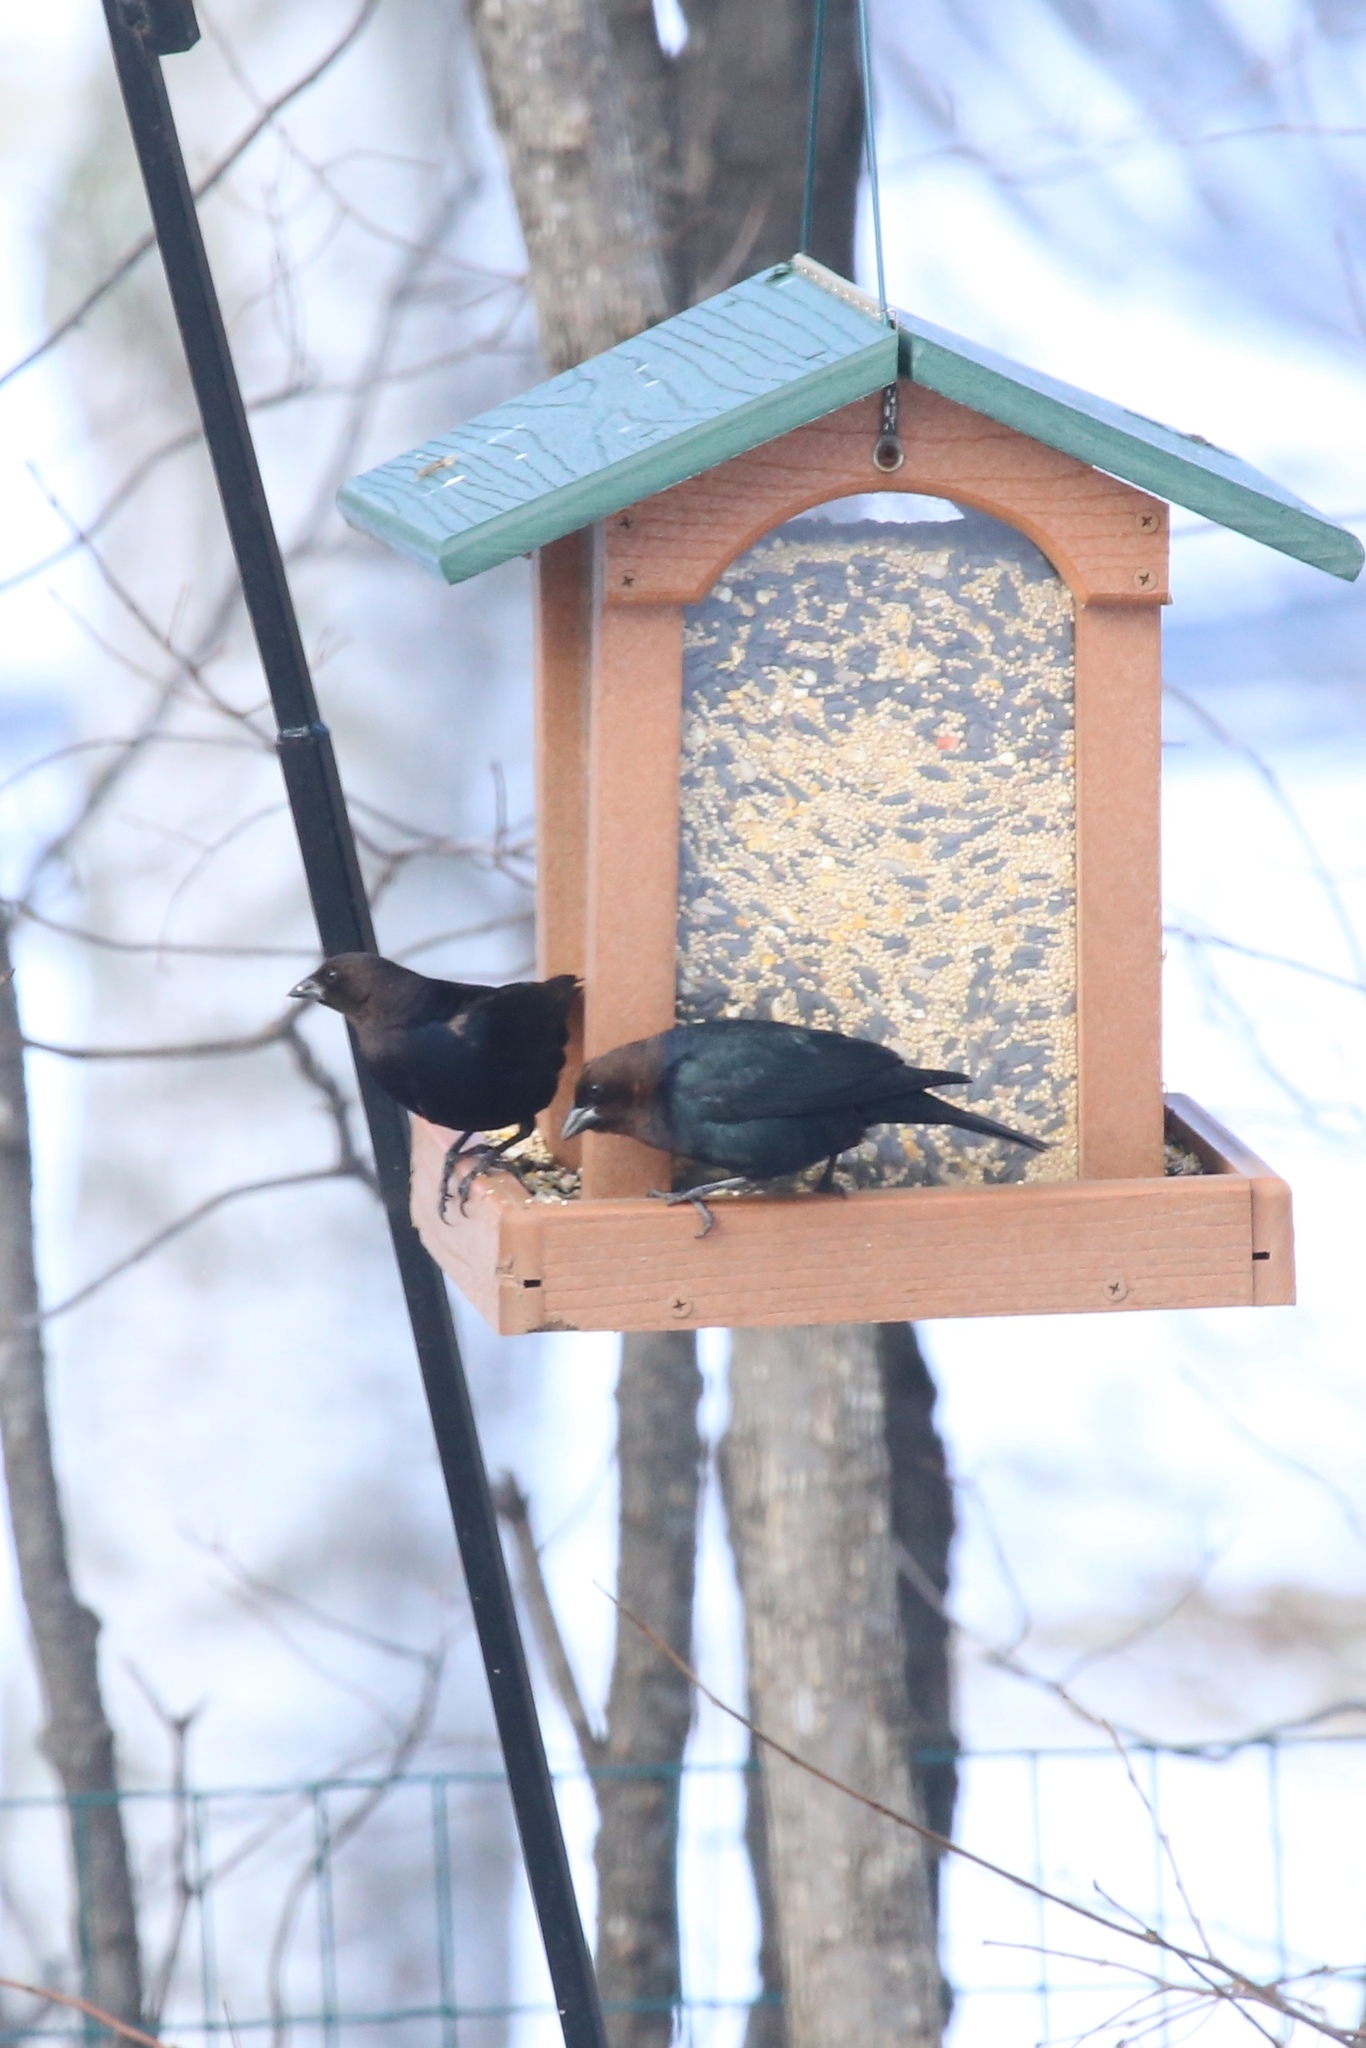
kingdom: Animalia
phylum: Chordata
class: Aves
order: Passeriformes
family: Icteridae
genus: Molothrus
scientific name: Molothrus ater
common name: Brown-headed cowbird
